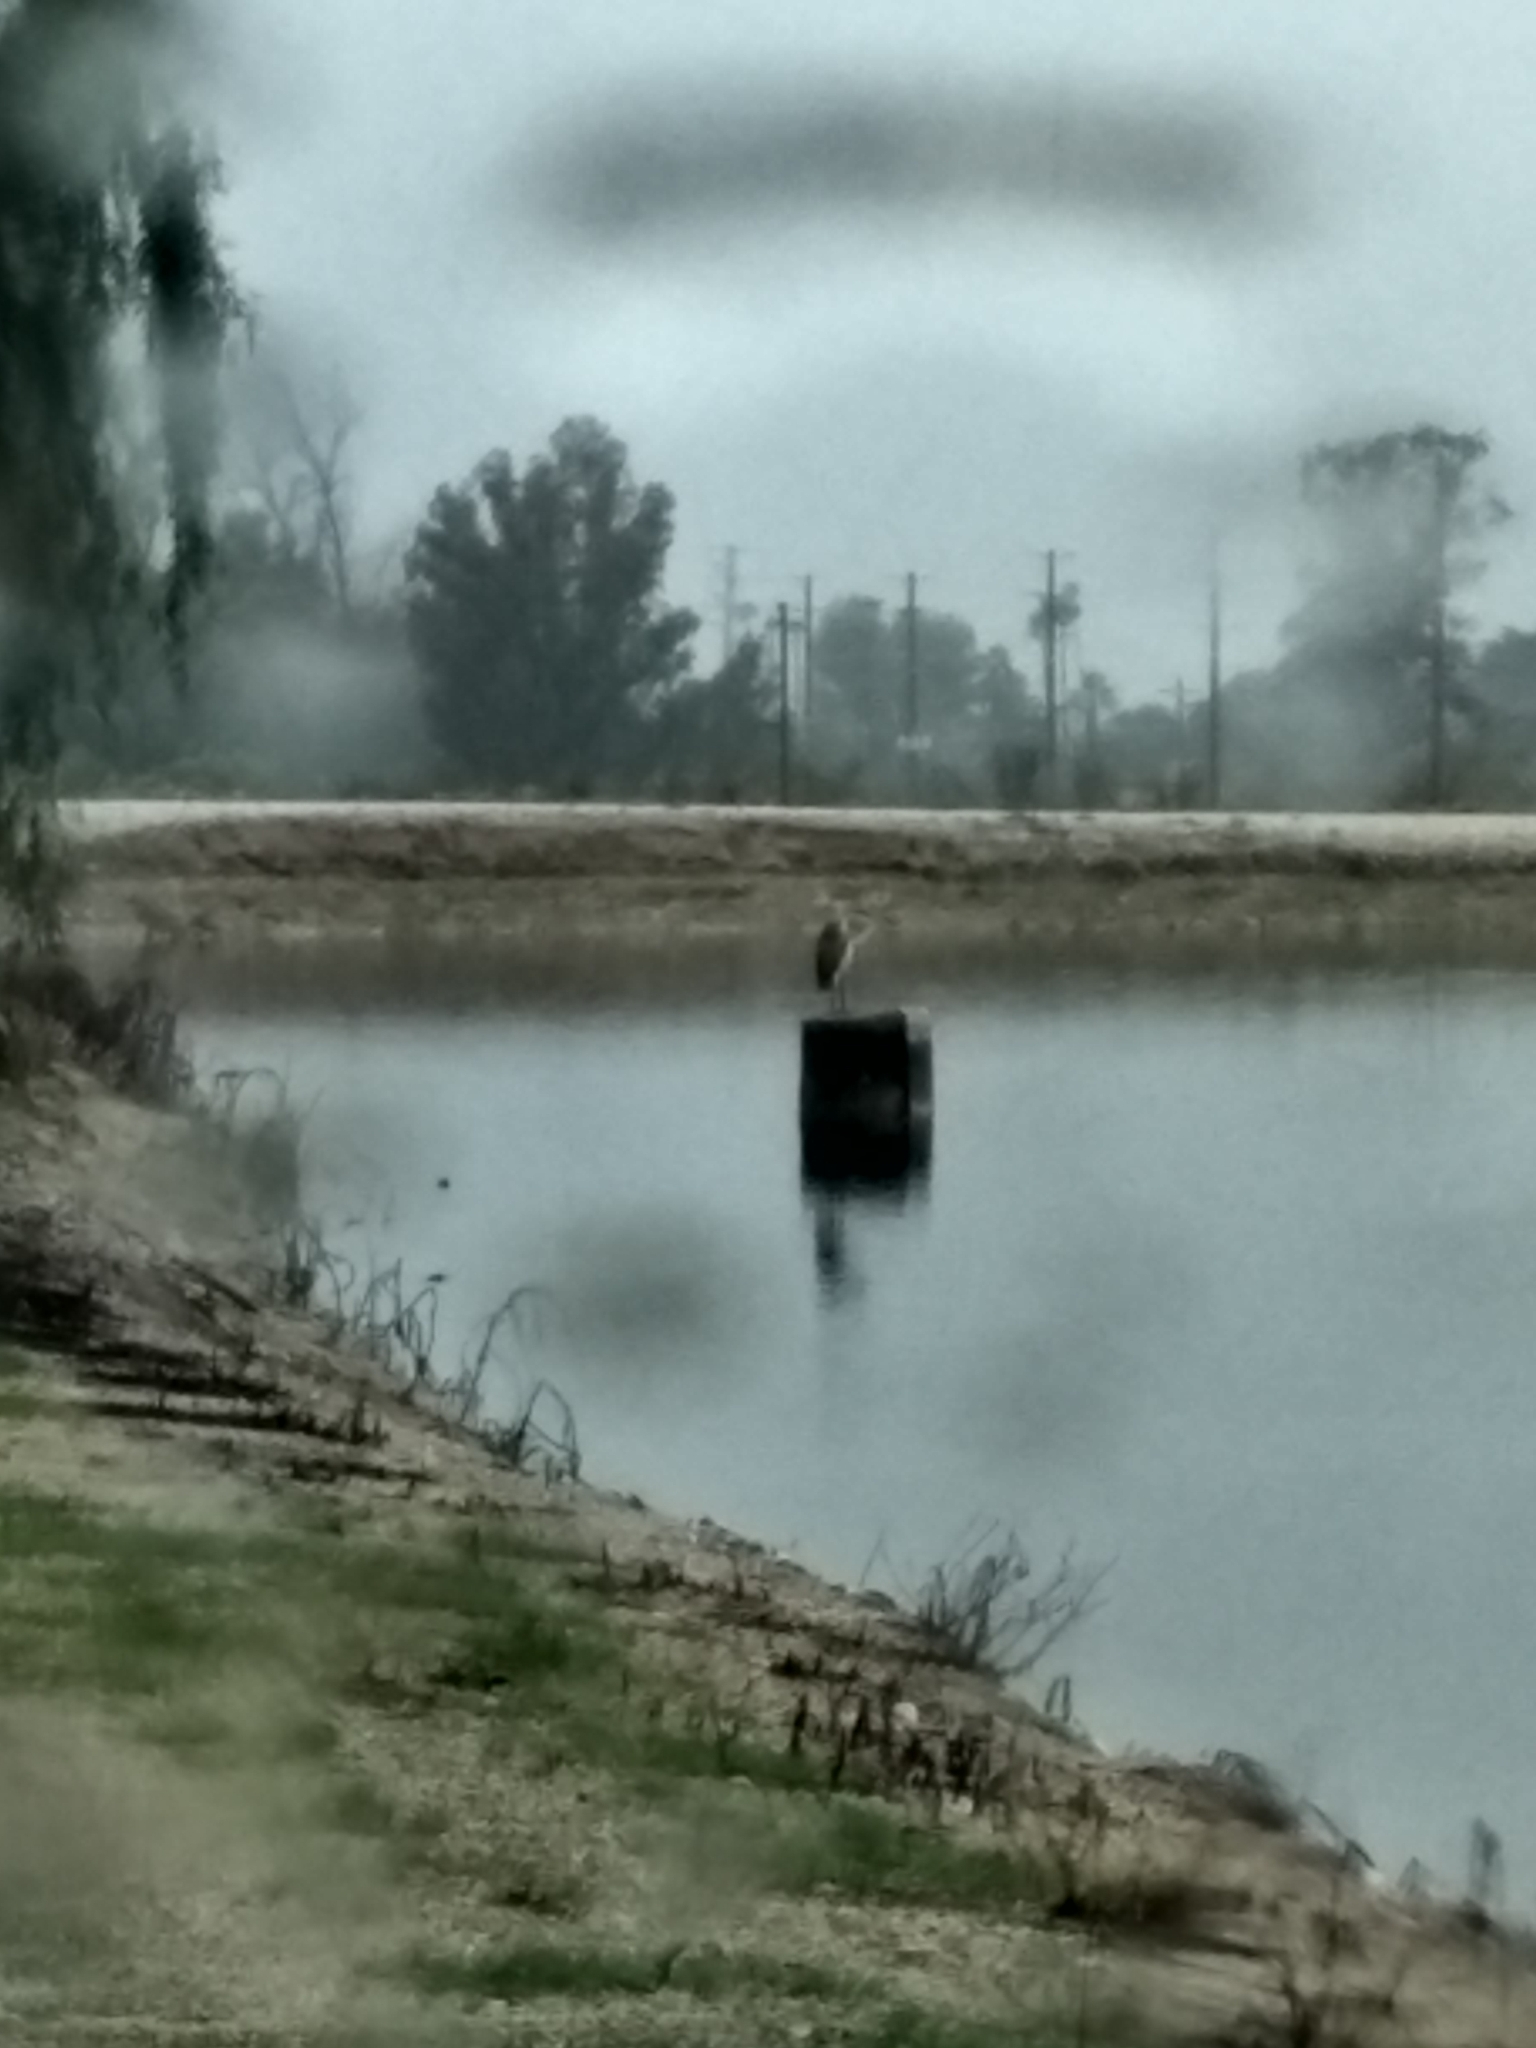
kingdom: Animalia
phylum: Chordata
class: Aves
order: Pelecaniformes
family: Ardeidae
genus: Ardea
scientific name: Ardea herodias
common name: Great blue heron
